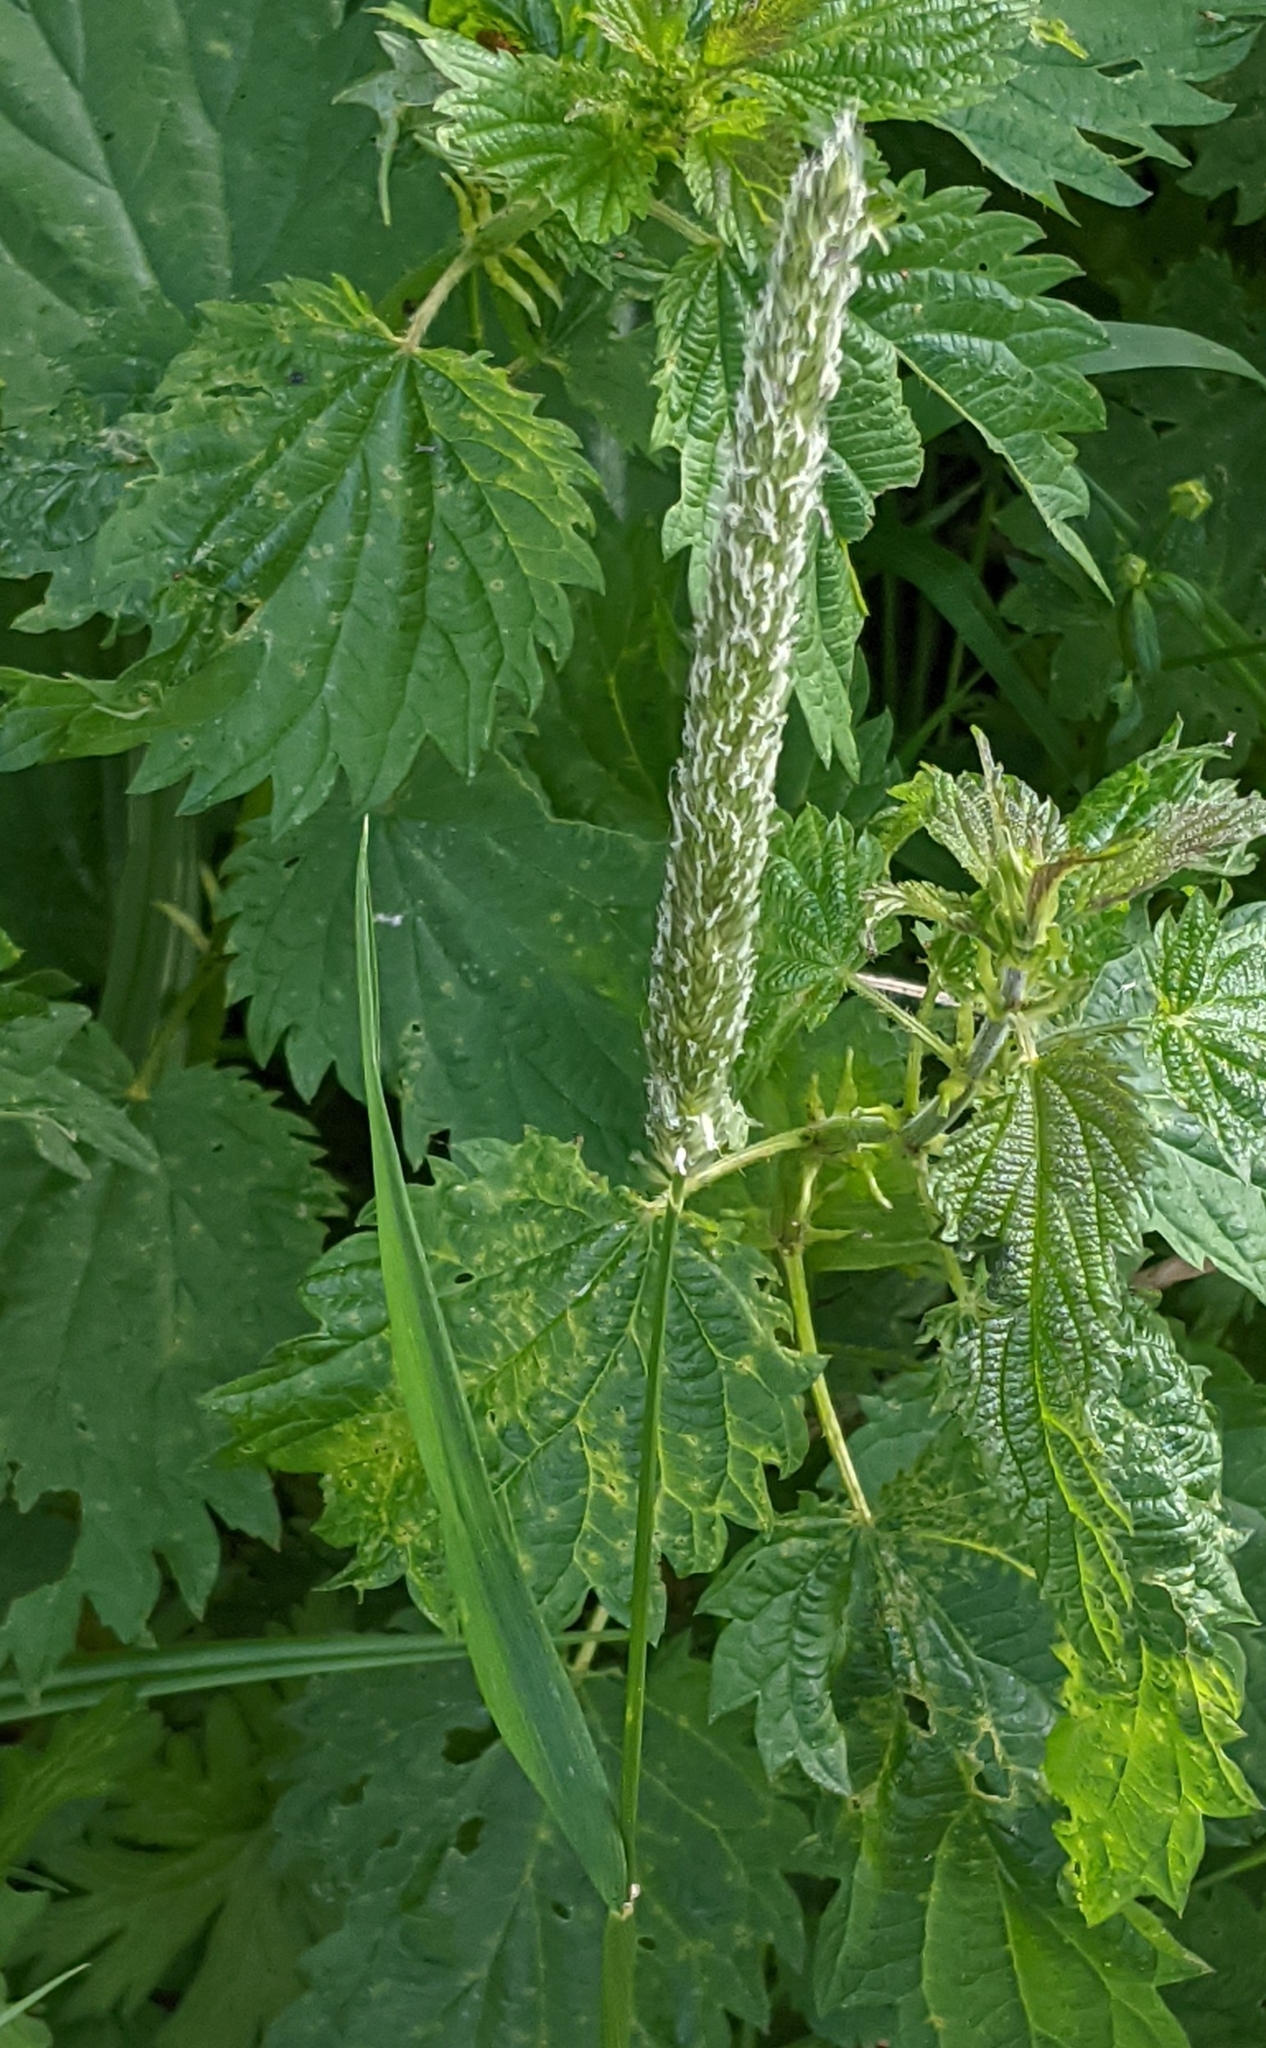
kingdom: Plantae
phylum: Tracheophyta
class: Liliopsida
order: Poales
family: Poaceae
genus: Alopecurus
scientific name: Alopecurus pratensis
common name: Meadow foxtail
